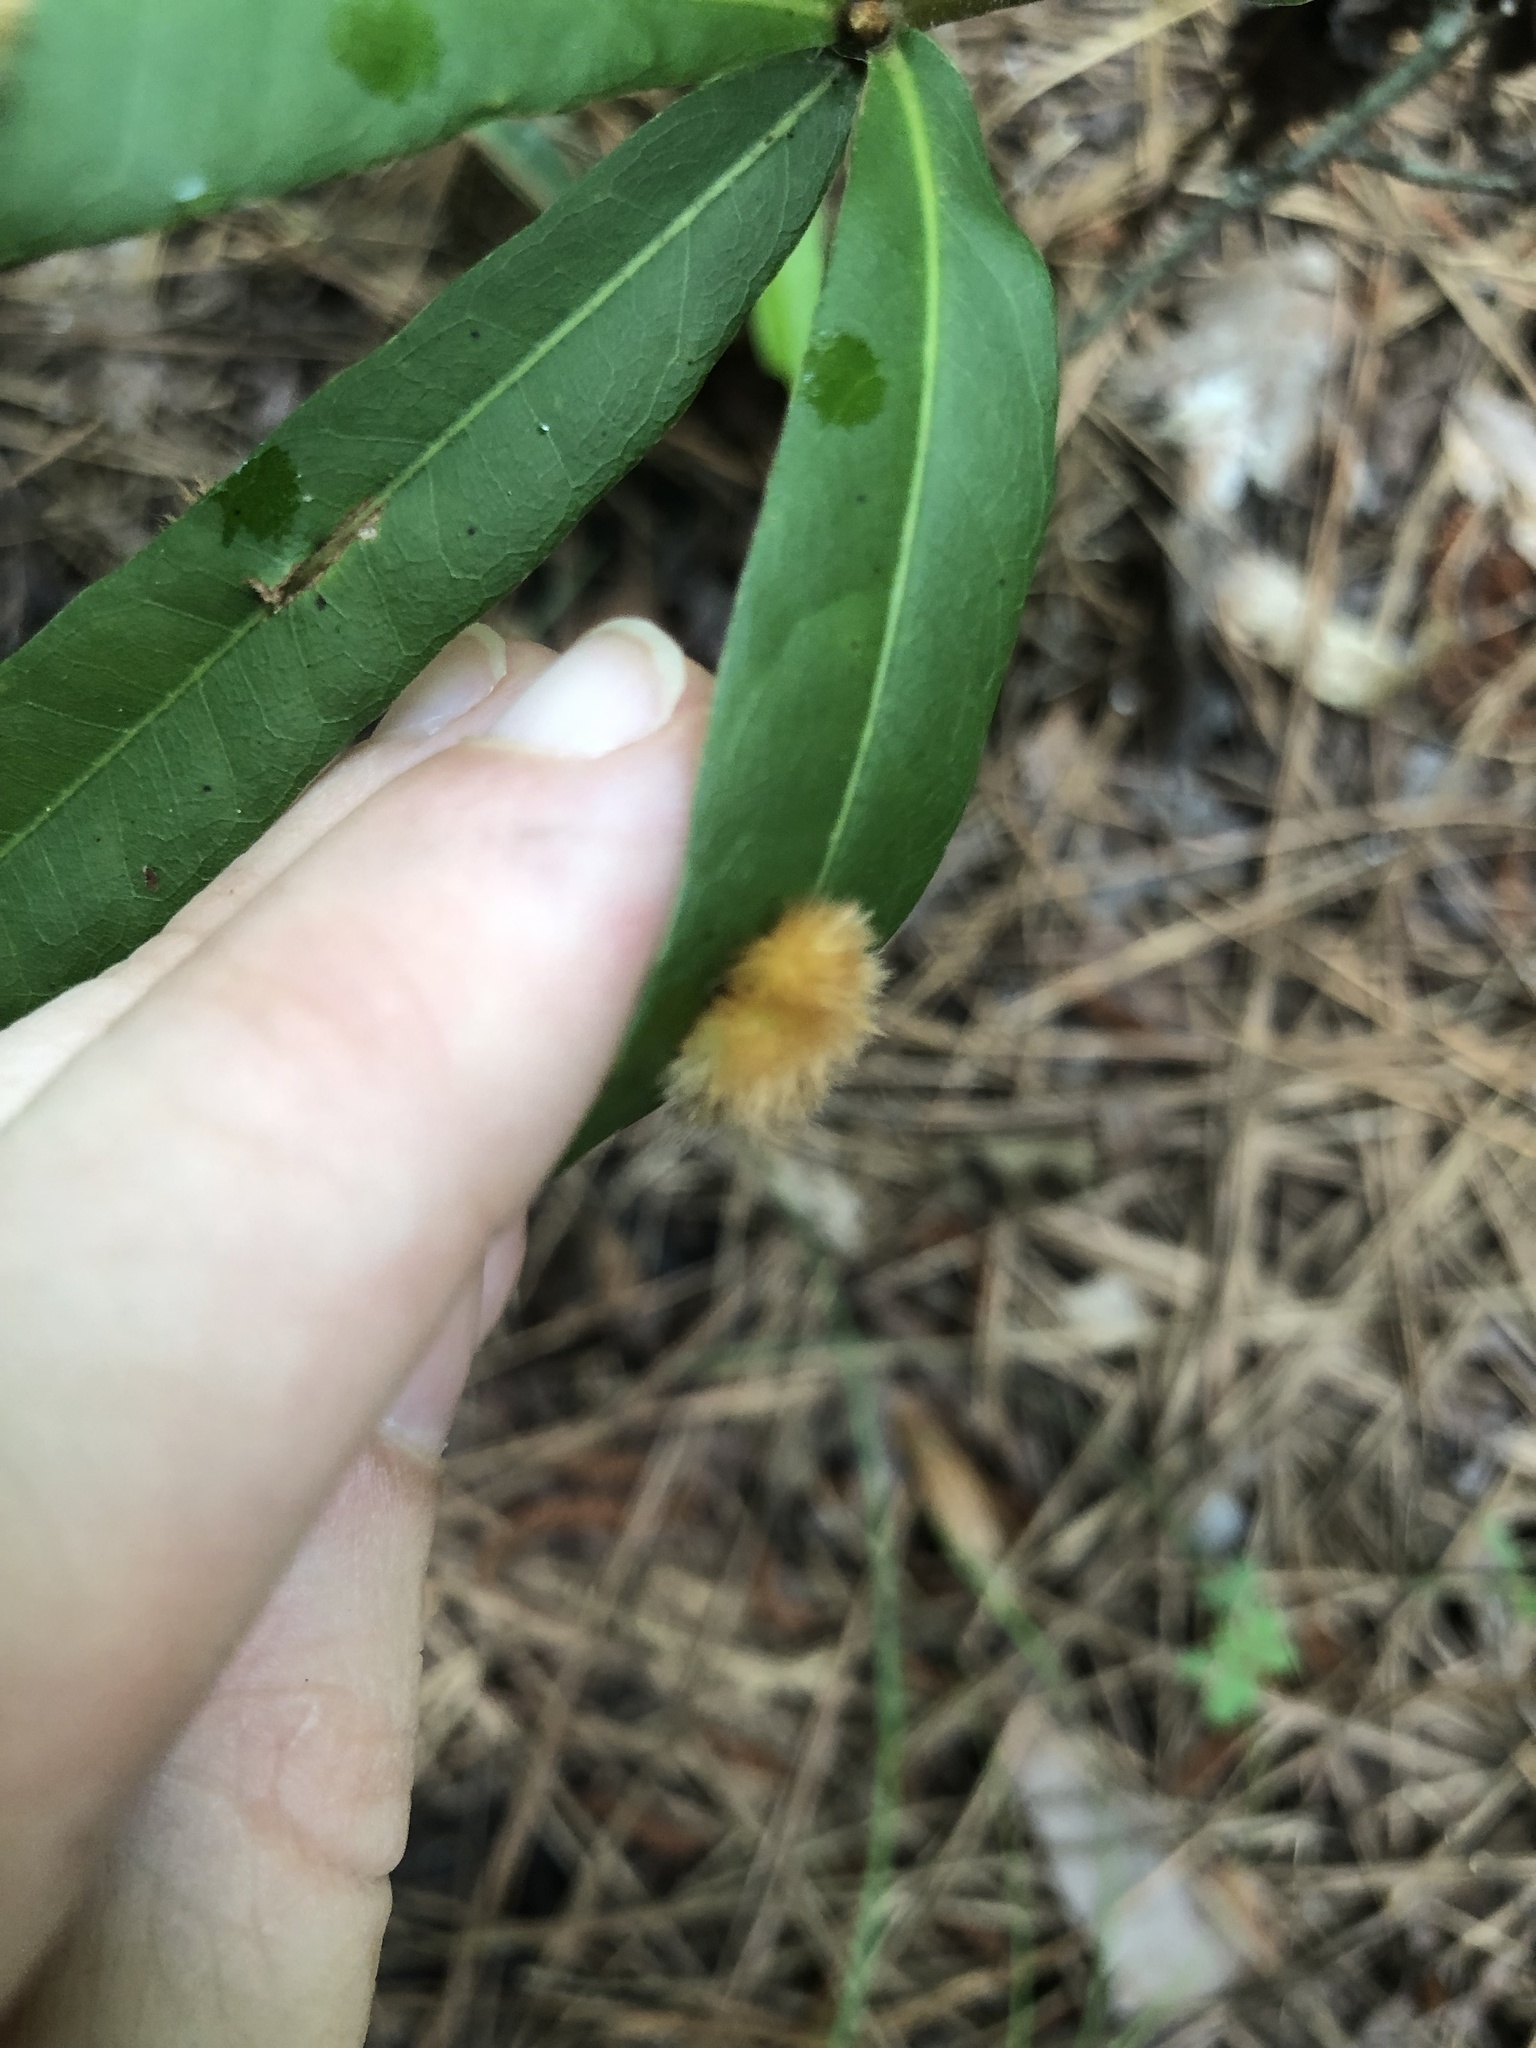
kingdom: Animalia
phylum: Arthropoda
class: Insecta
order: Hymenoptera
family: Cynipidae
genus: Callirhytis
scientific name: Callirhytis
